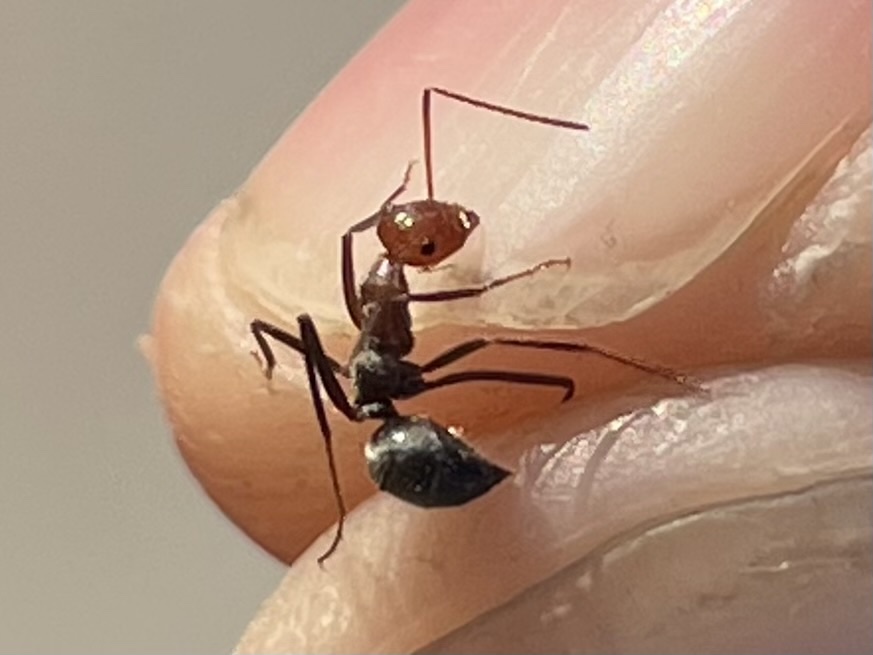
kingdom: Animalia
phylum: Arthropoda
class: Insecta
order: Hymenoptera
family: Formicidae
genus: Myrmecocystus
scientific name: Myrmecocystus placodops
